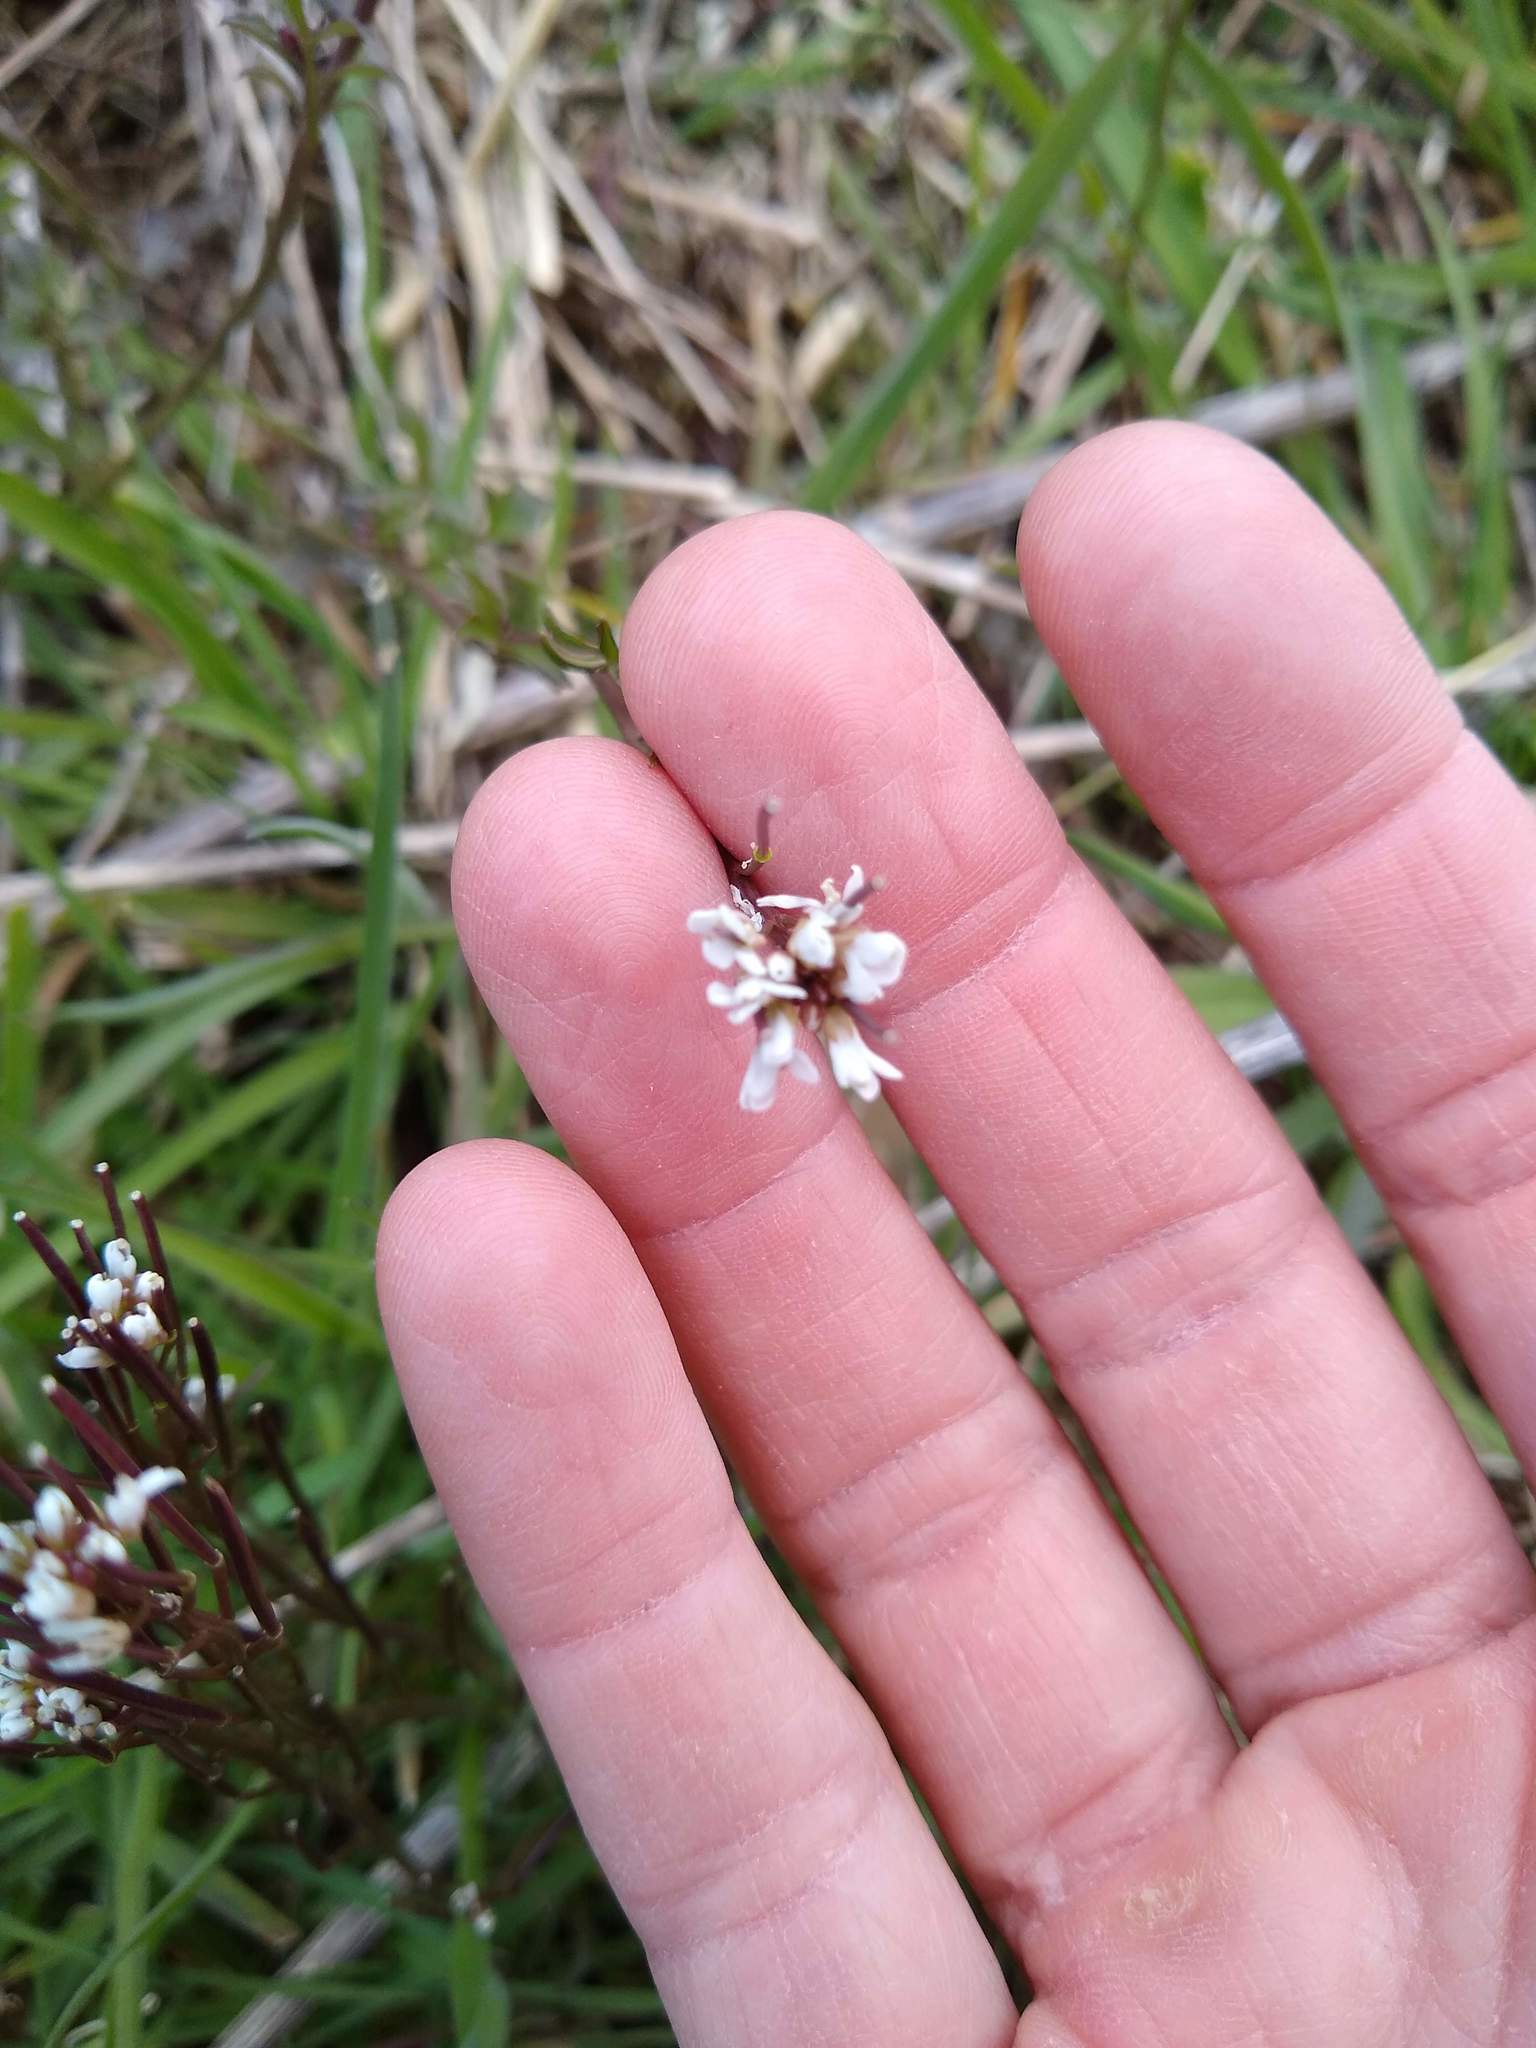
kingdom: Plantae
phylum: Tracheophyta
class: Magnoliopsida
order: Brassicales
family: Brassicaceae
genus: Cardamine
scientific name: Cardamine hirsuta
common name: Hairy bittercress
